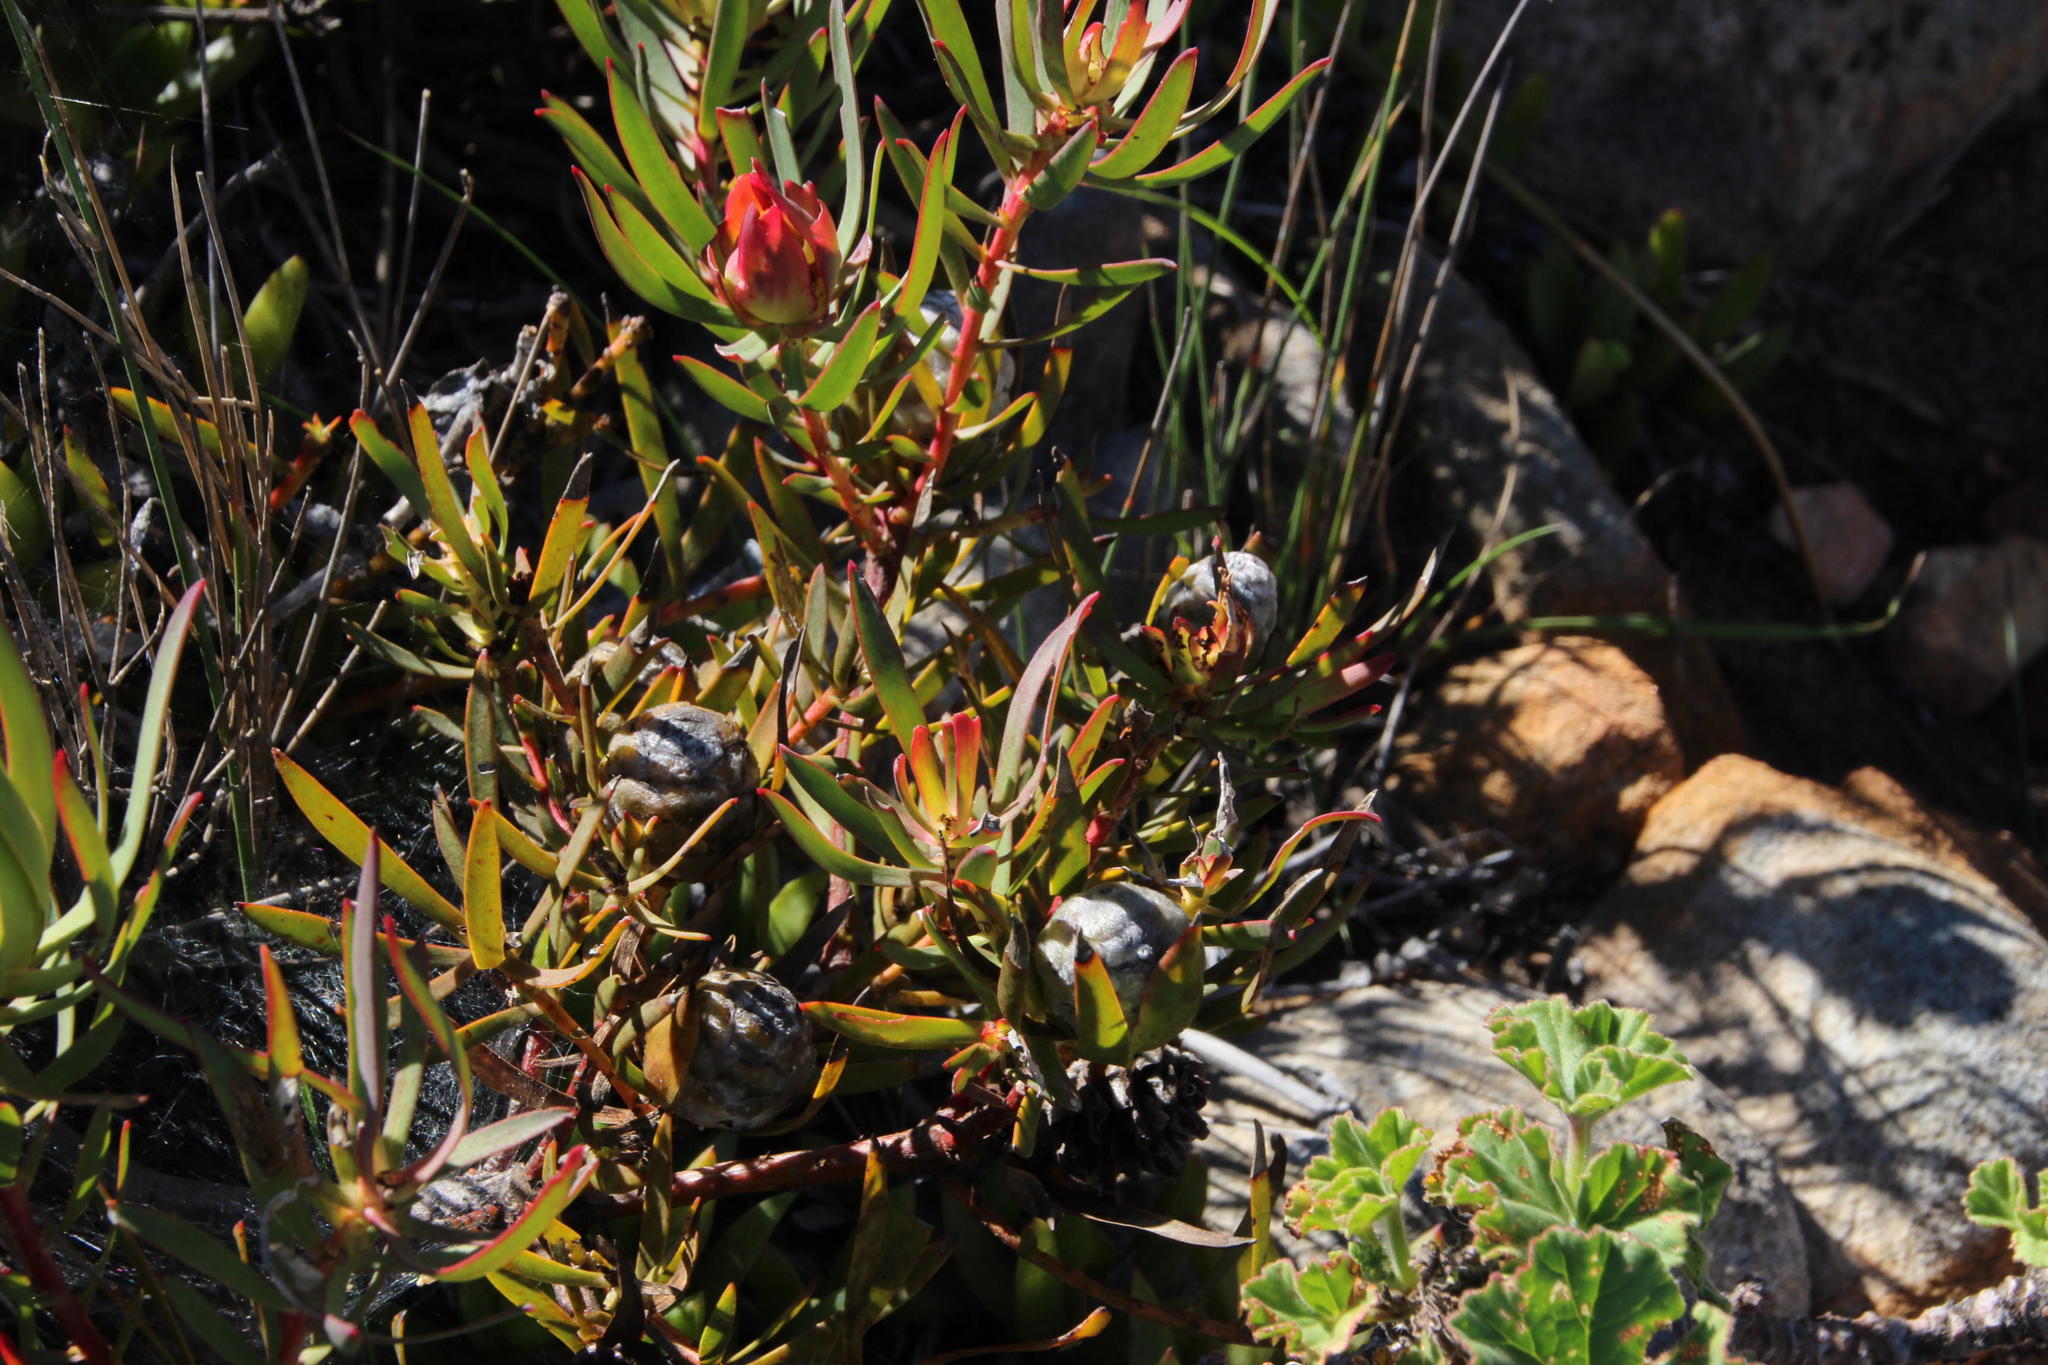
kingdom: Plantae
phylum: Tracheophyta
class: Magnoliopsida
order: Proteales
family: Proteaceae
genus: Leucadendron
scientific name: Leucadendron salignum
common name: Common sunshine conebush
